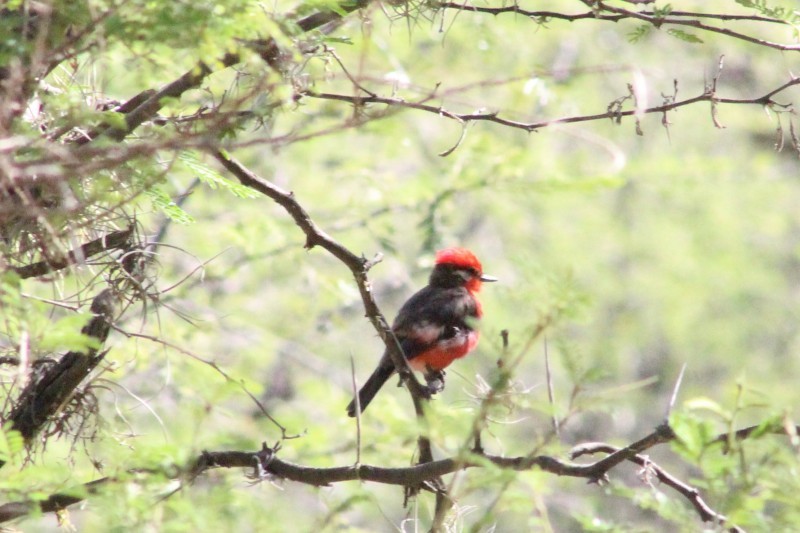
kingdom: Animalia
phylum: Chordata
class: Aves
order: Passeriformes
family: Tyrannidae
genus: Pyrocephalus
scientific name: Pyrocephalus rubinus
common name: Vermilion flycatcher
